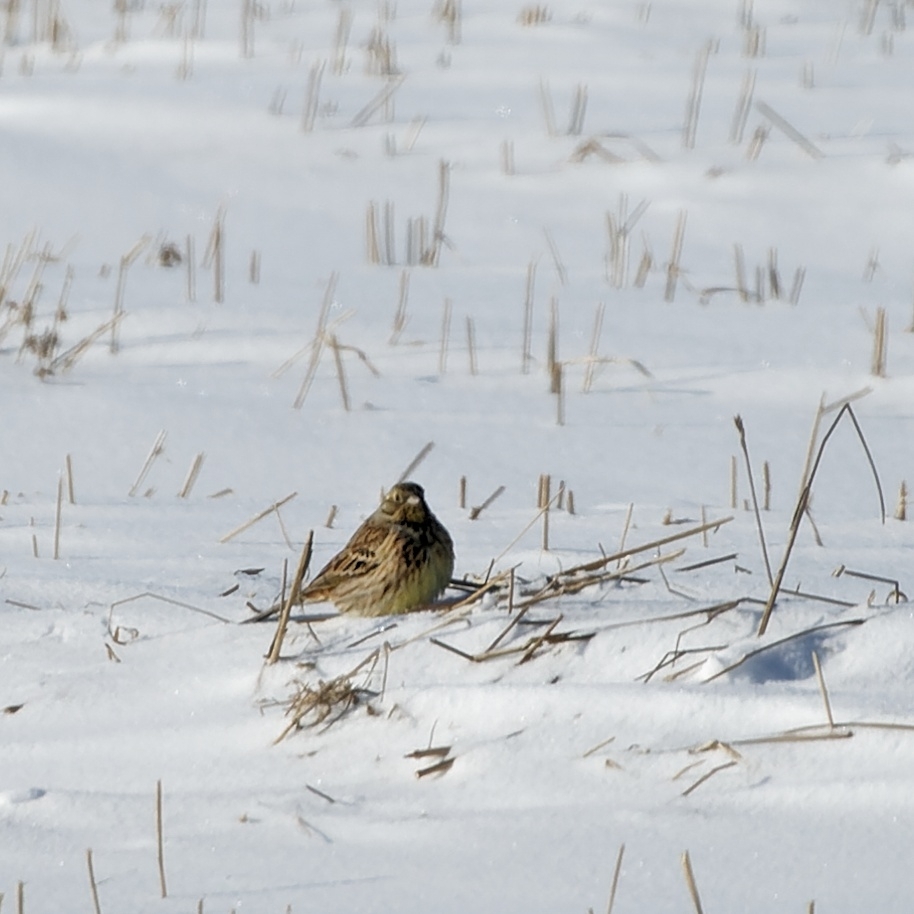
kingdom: Animalia
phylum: Chordata
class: Aves
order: Passeriformes
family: Emberizidae
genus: Emberiza
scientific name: Emberiza
